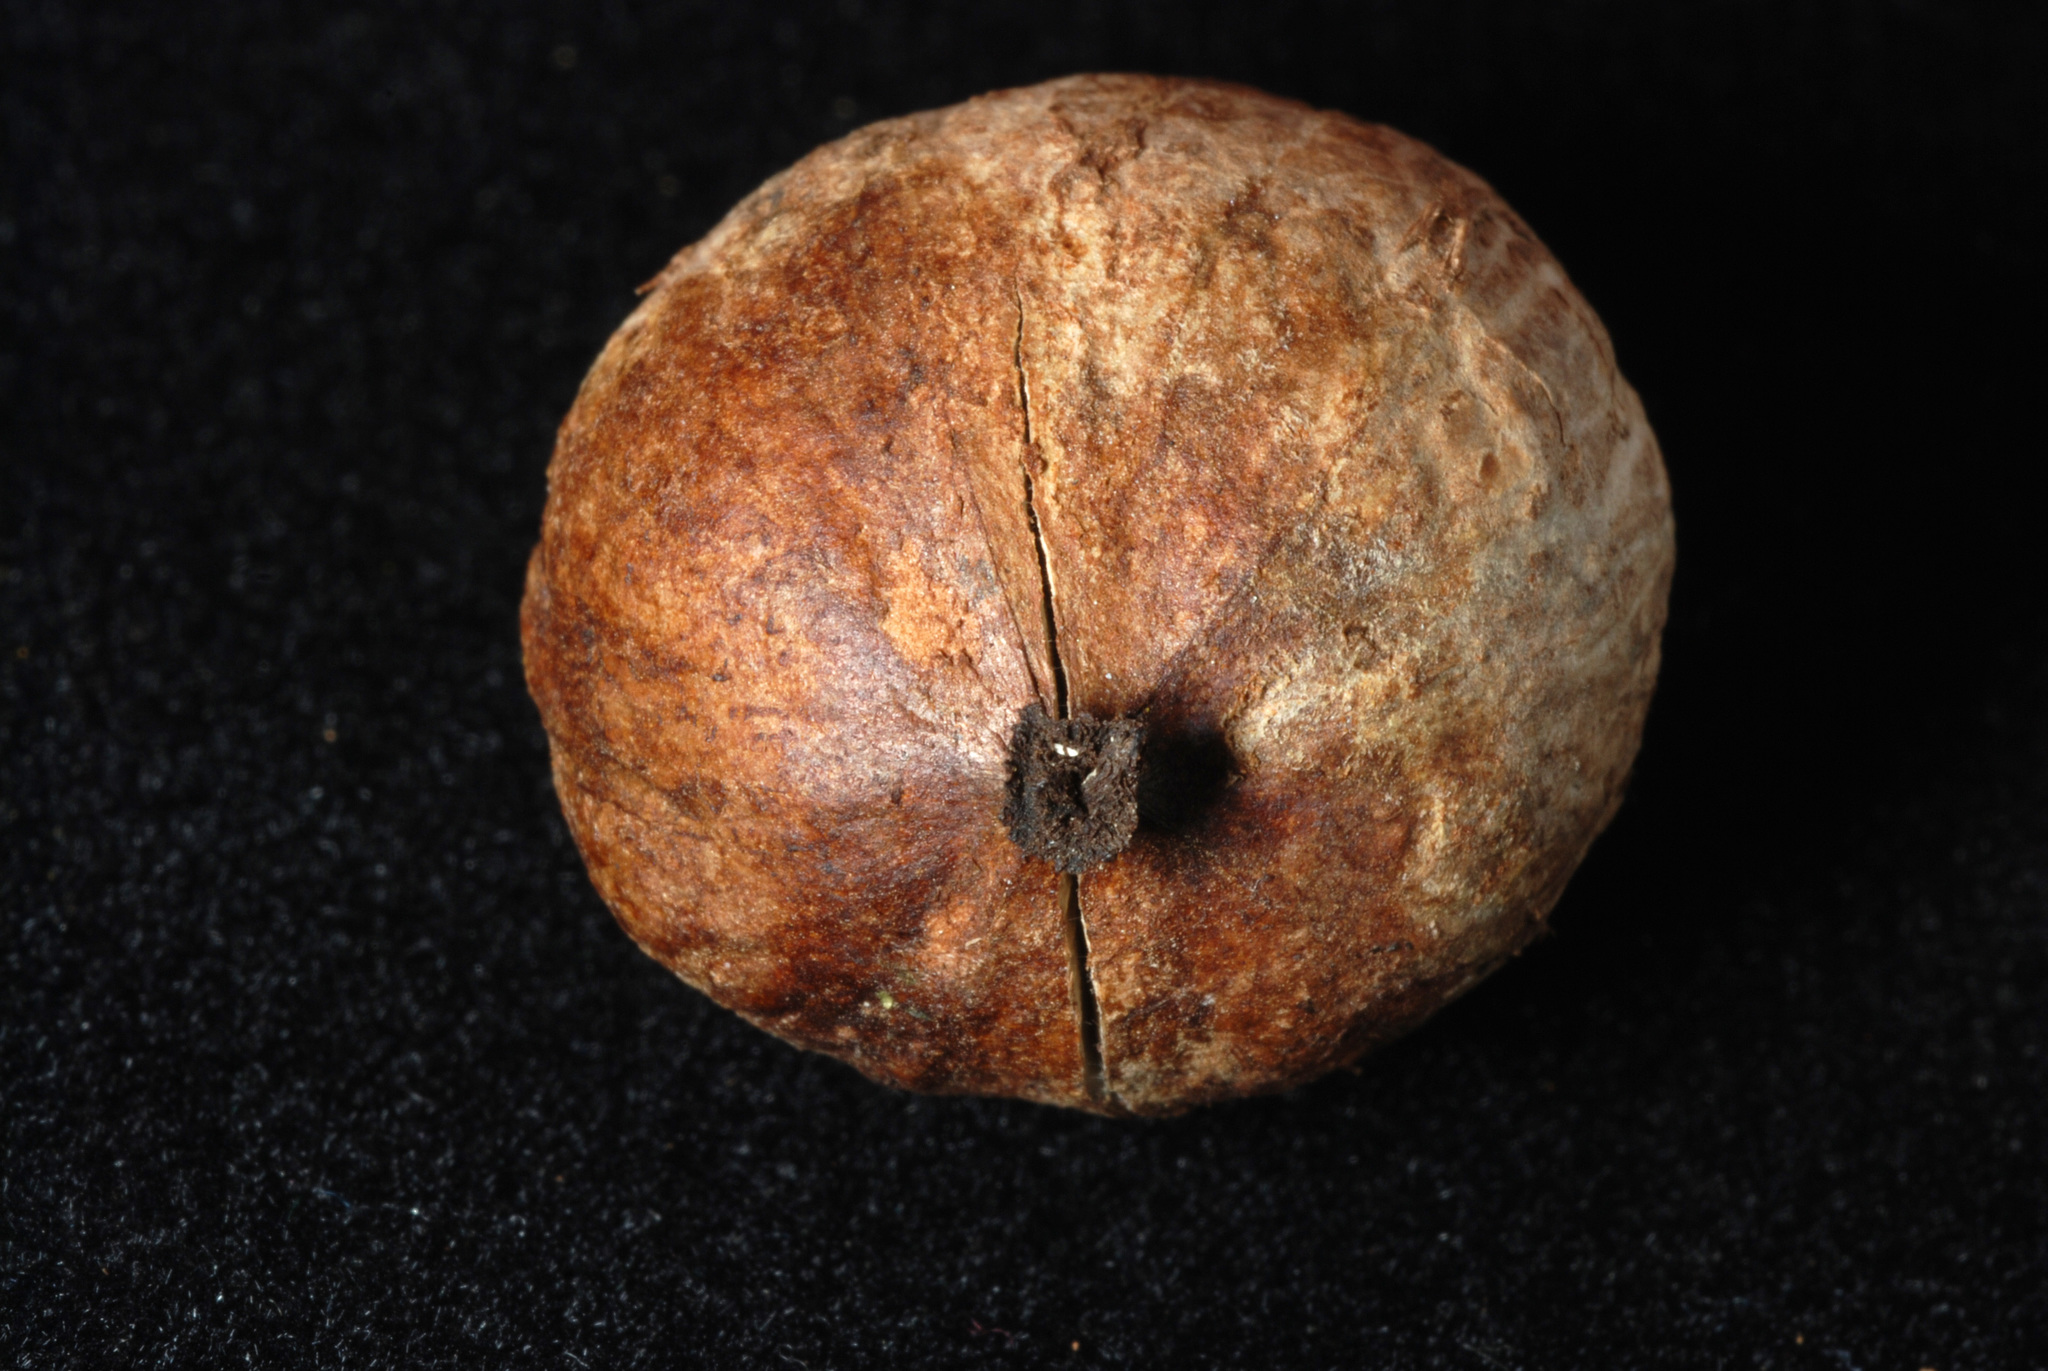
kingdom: Plantae
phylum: Tracheophyta
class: Magnoliopsida
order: Fagales
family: Juglandaceae
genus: Carya
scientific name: Carya glabra
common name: Pignut hickory
